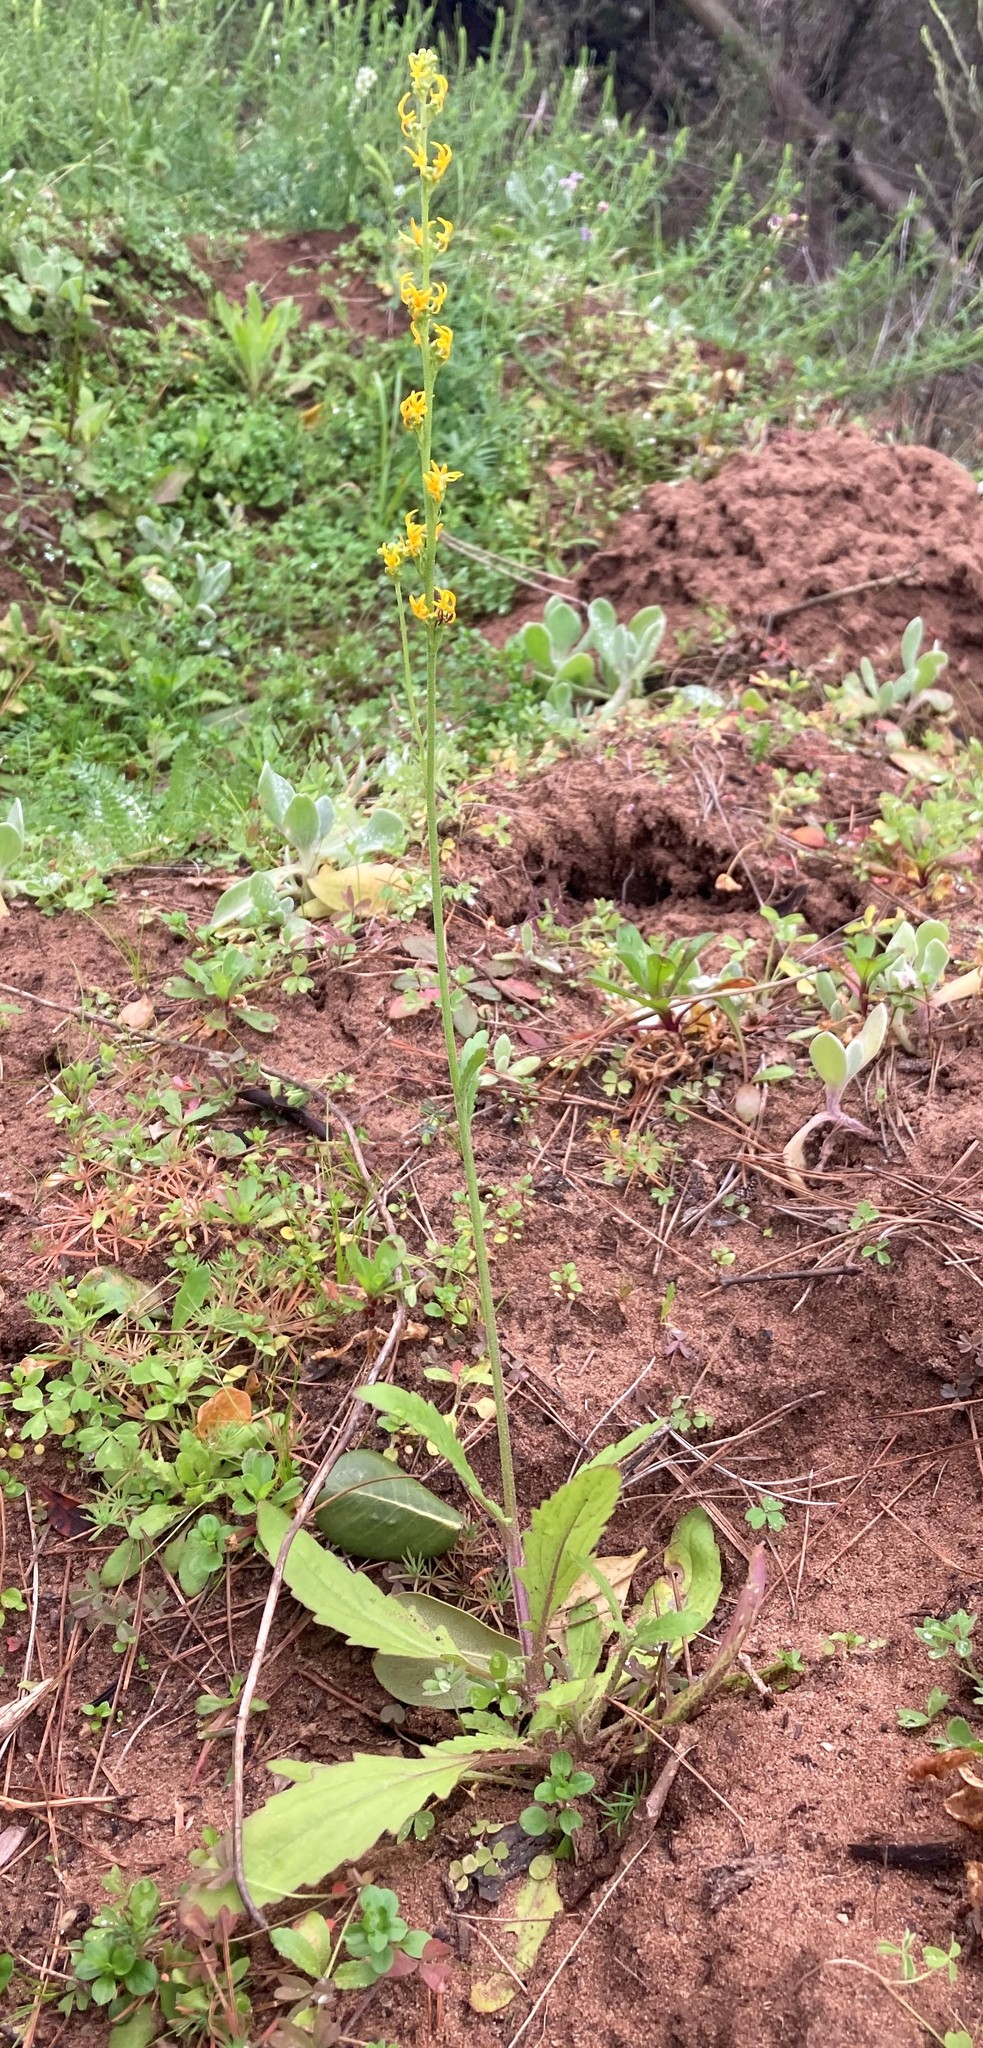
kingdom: Plantae
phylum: Tracheophyta
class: Magnoliopsida
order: Lamiales
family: Scrophulariaceae
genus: Manulea
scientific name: Manulea cheiranthus
